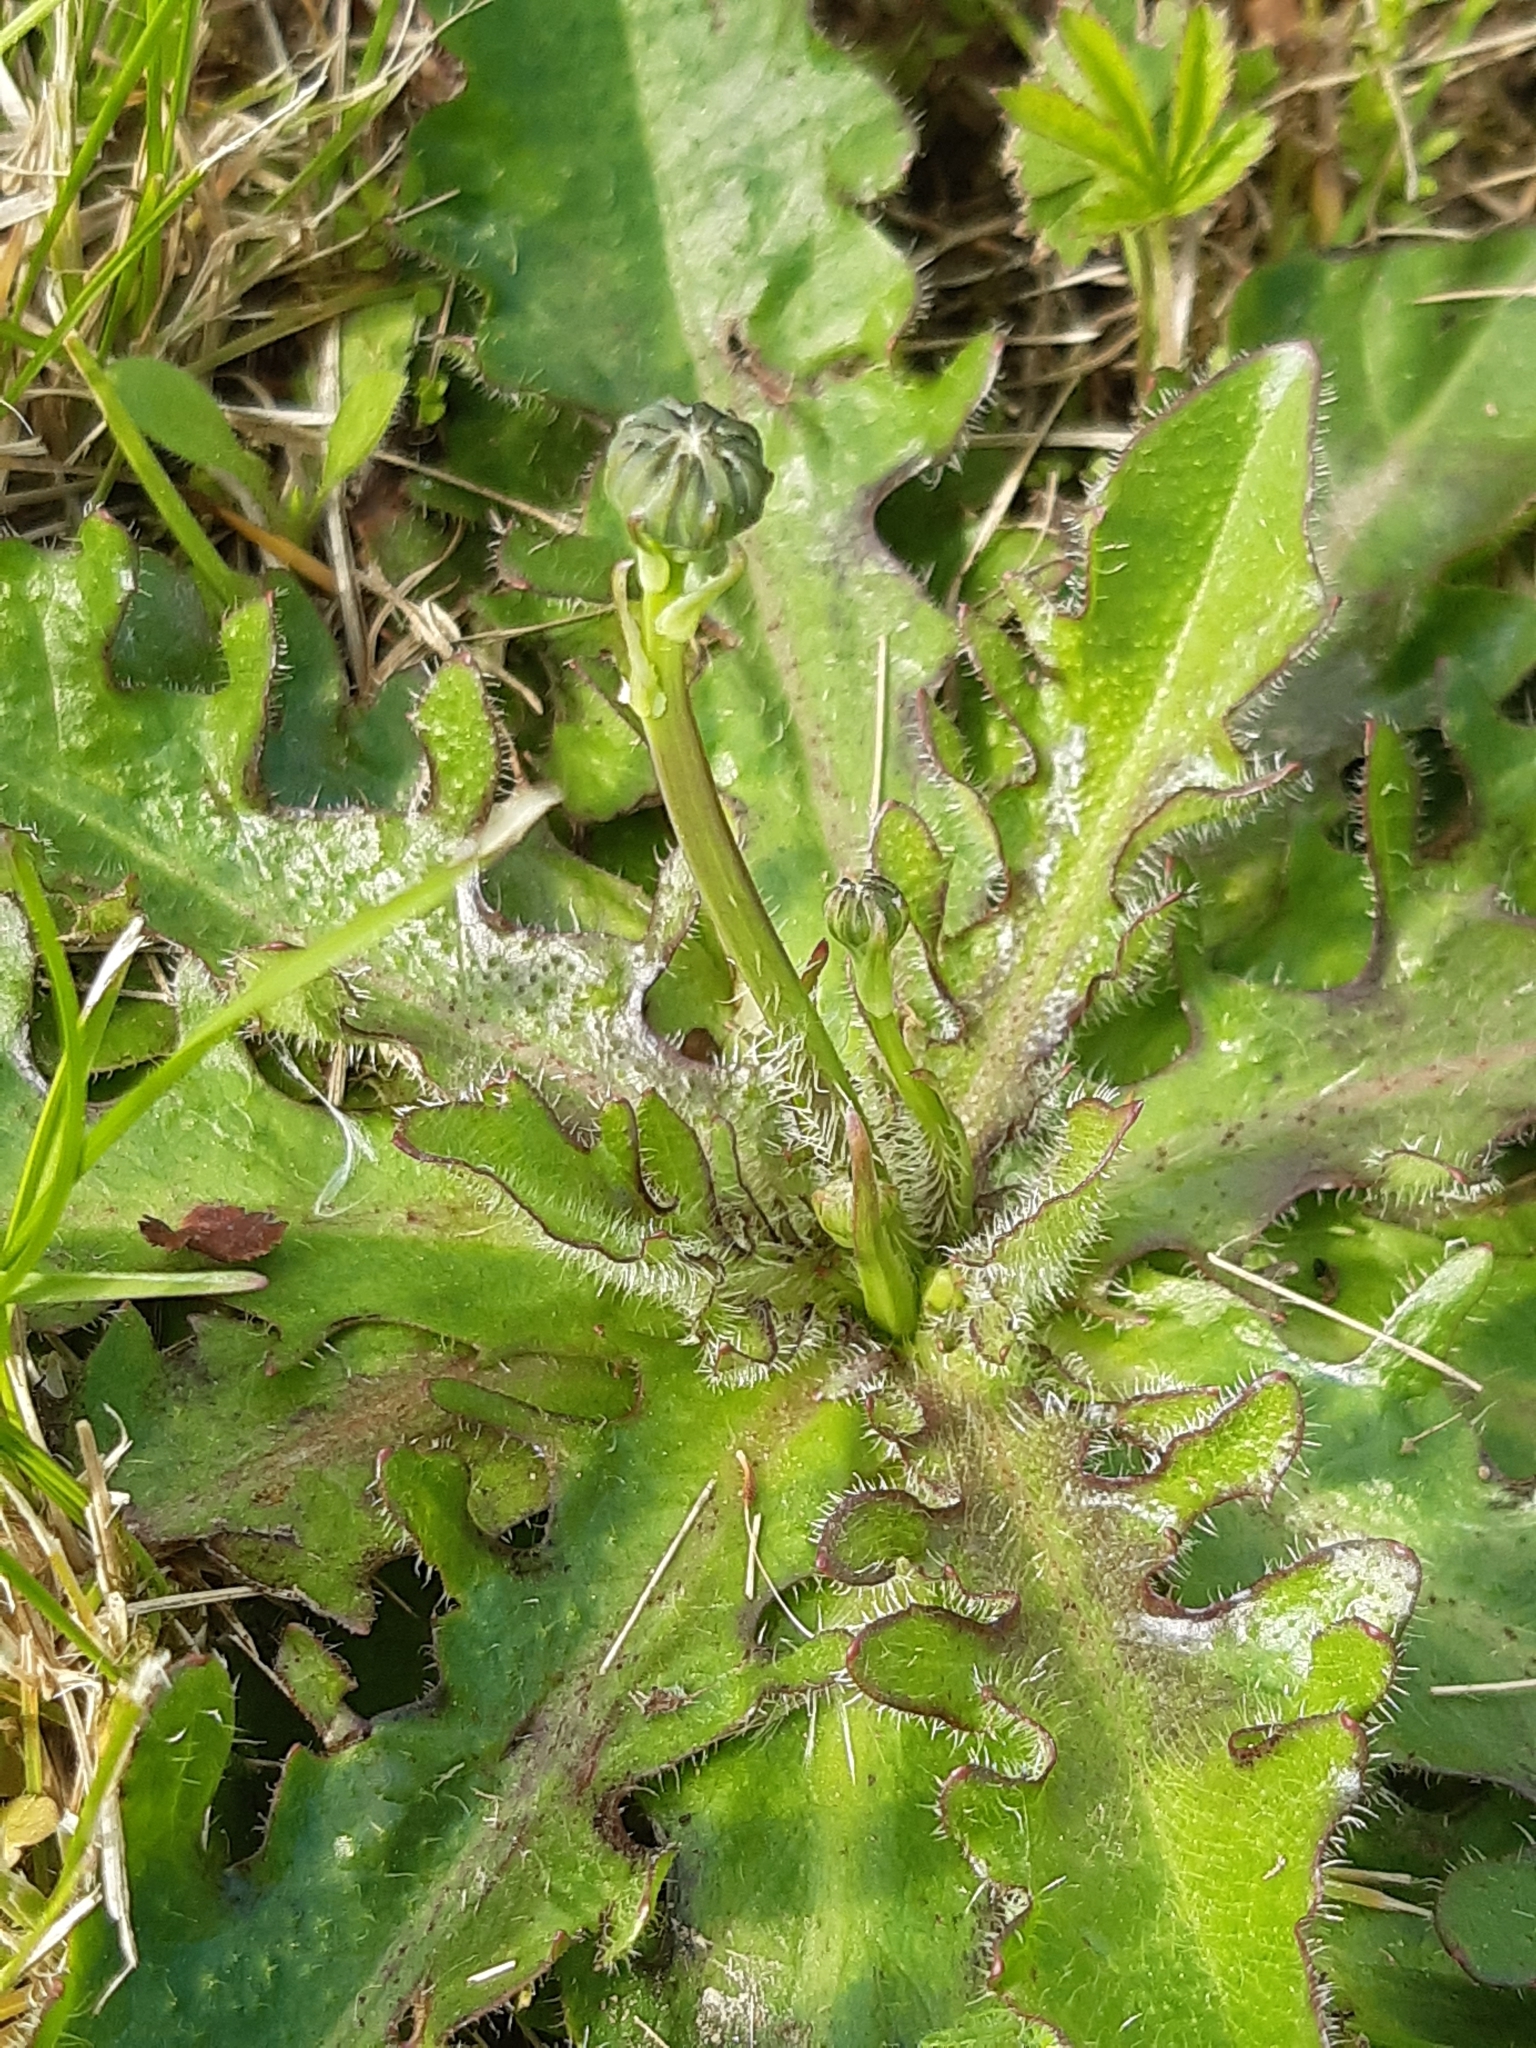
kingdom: Plantae
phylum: Tracheophyta
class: Magnoliopsida
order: Asterales
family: Asteraceae
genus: Hypochaeris
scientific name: Hypochaeris radicata
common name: Flatweed
